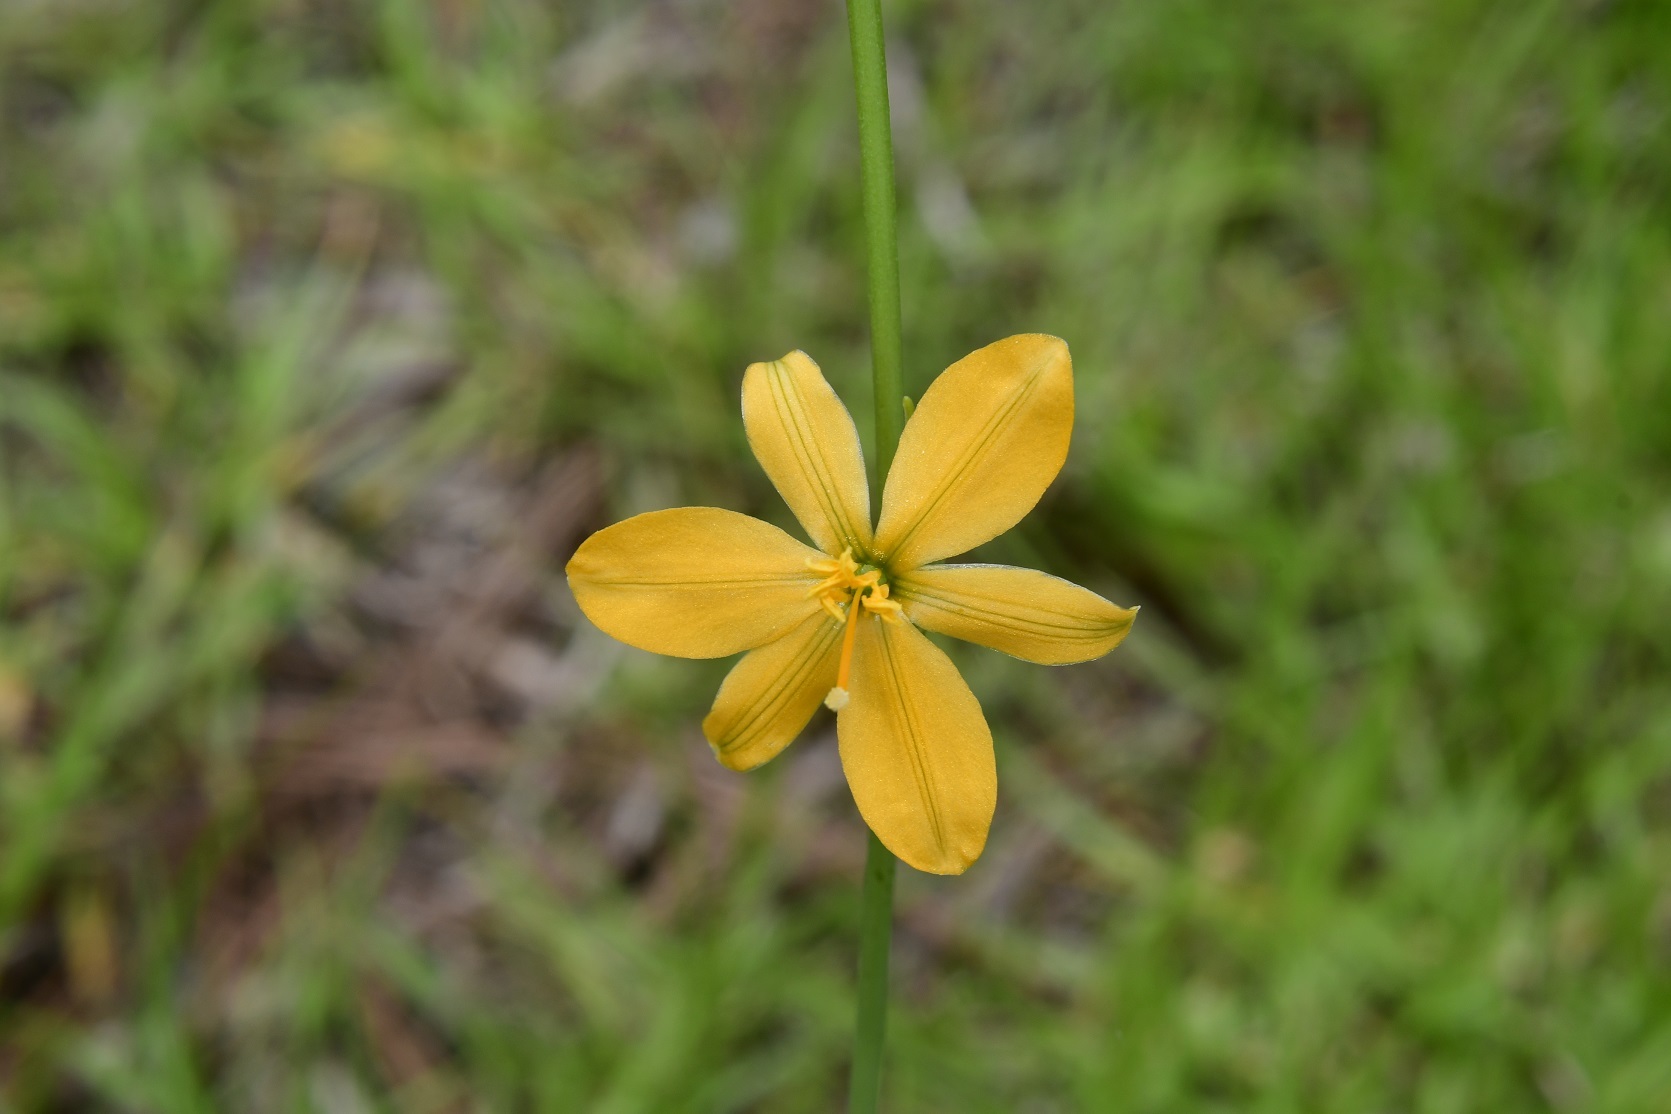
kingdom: Plantae
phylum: Tracheophyta
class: Liliopsida
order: Asparagales
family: Asparagaceae
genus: Echeandia
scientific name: Echeandia skinneri
